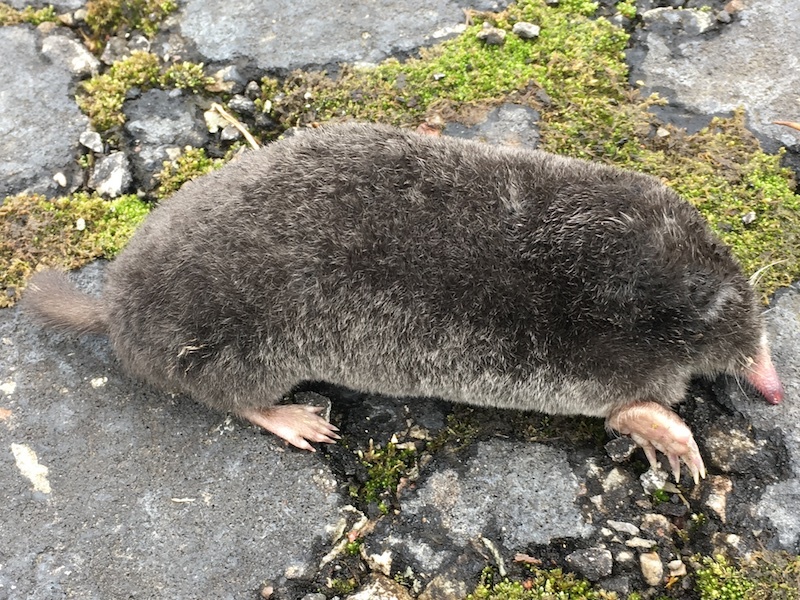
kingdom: Animalia
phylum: Chordata
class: Mammalia
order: Soricomorpha
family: Talpidae
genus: Parascalops
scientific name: Parascalops breweri
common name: Hairy-tailed mole
